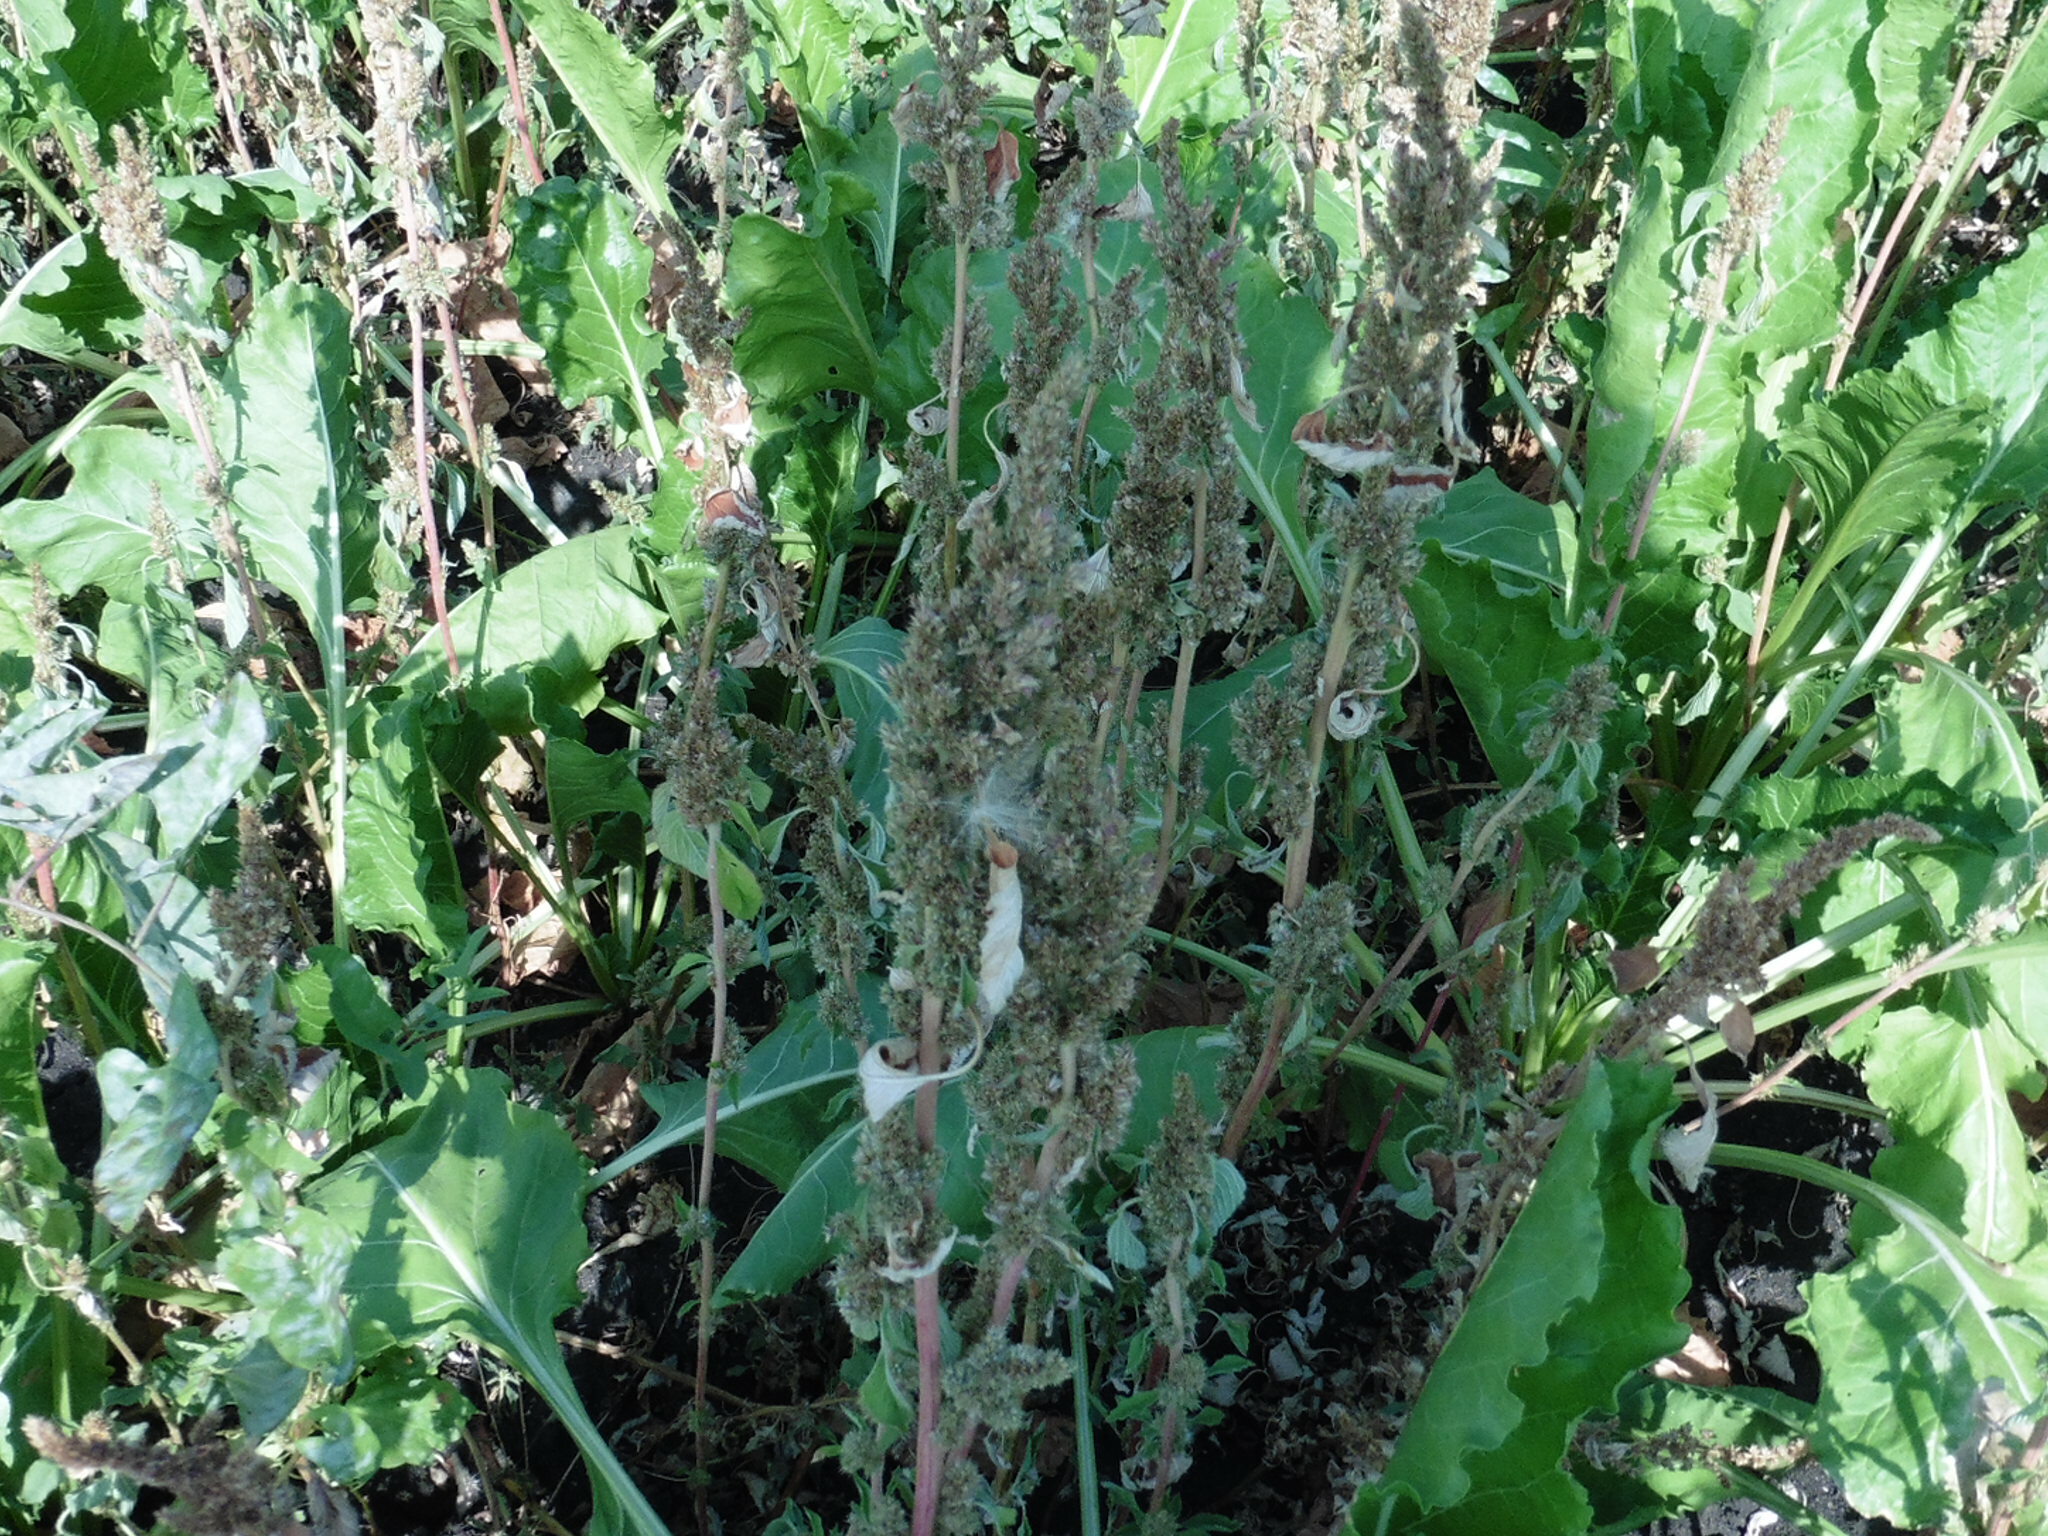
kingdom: Plantae
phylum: Tracheophyta
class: Magnoliopsida
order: Caryophyllales
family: Amaranthaceae
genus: Amaranthus
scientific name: Amaranthus retroflexus
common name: Redroot amaranth
